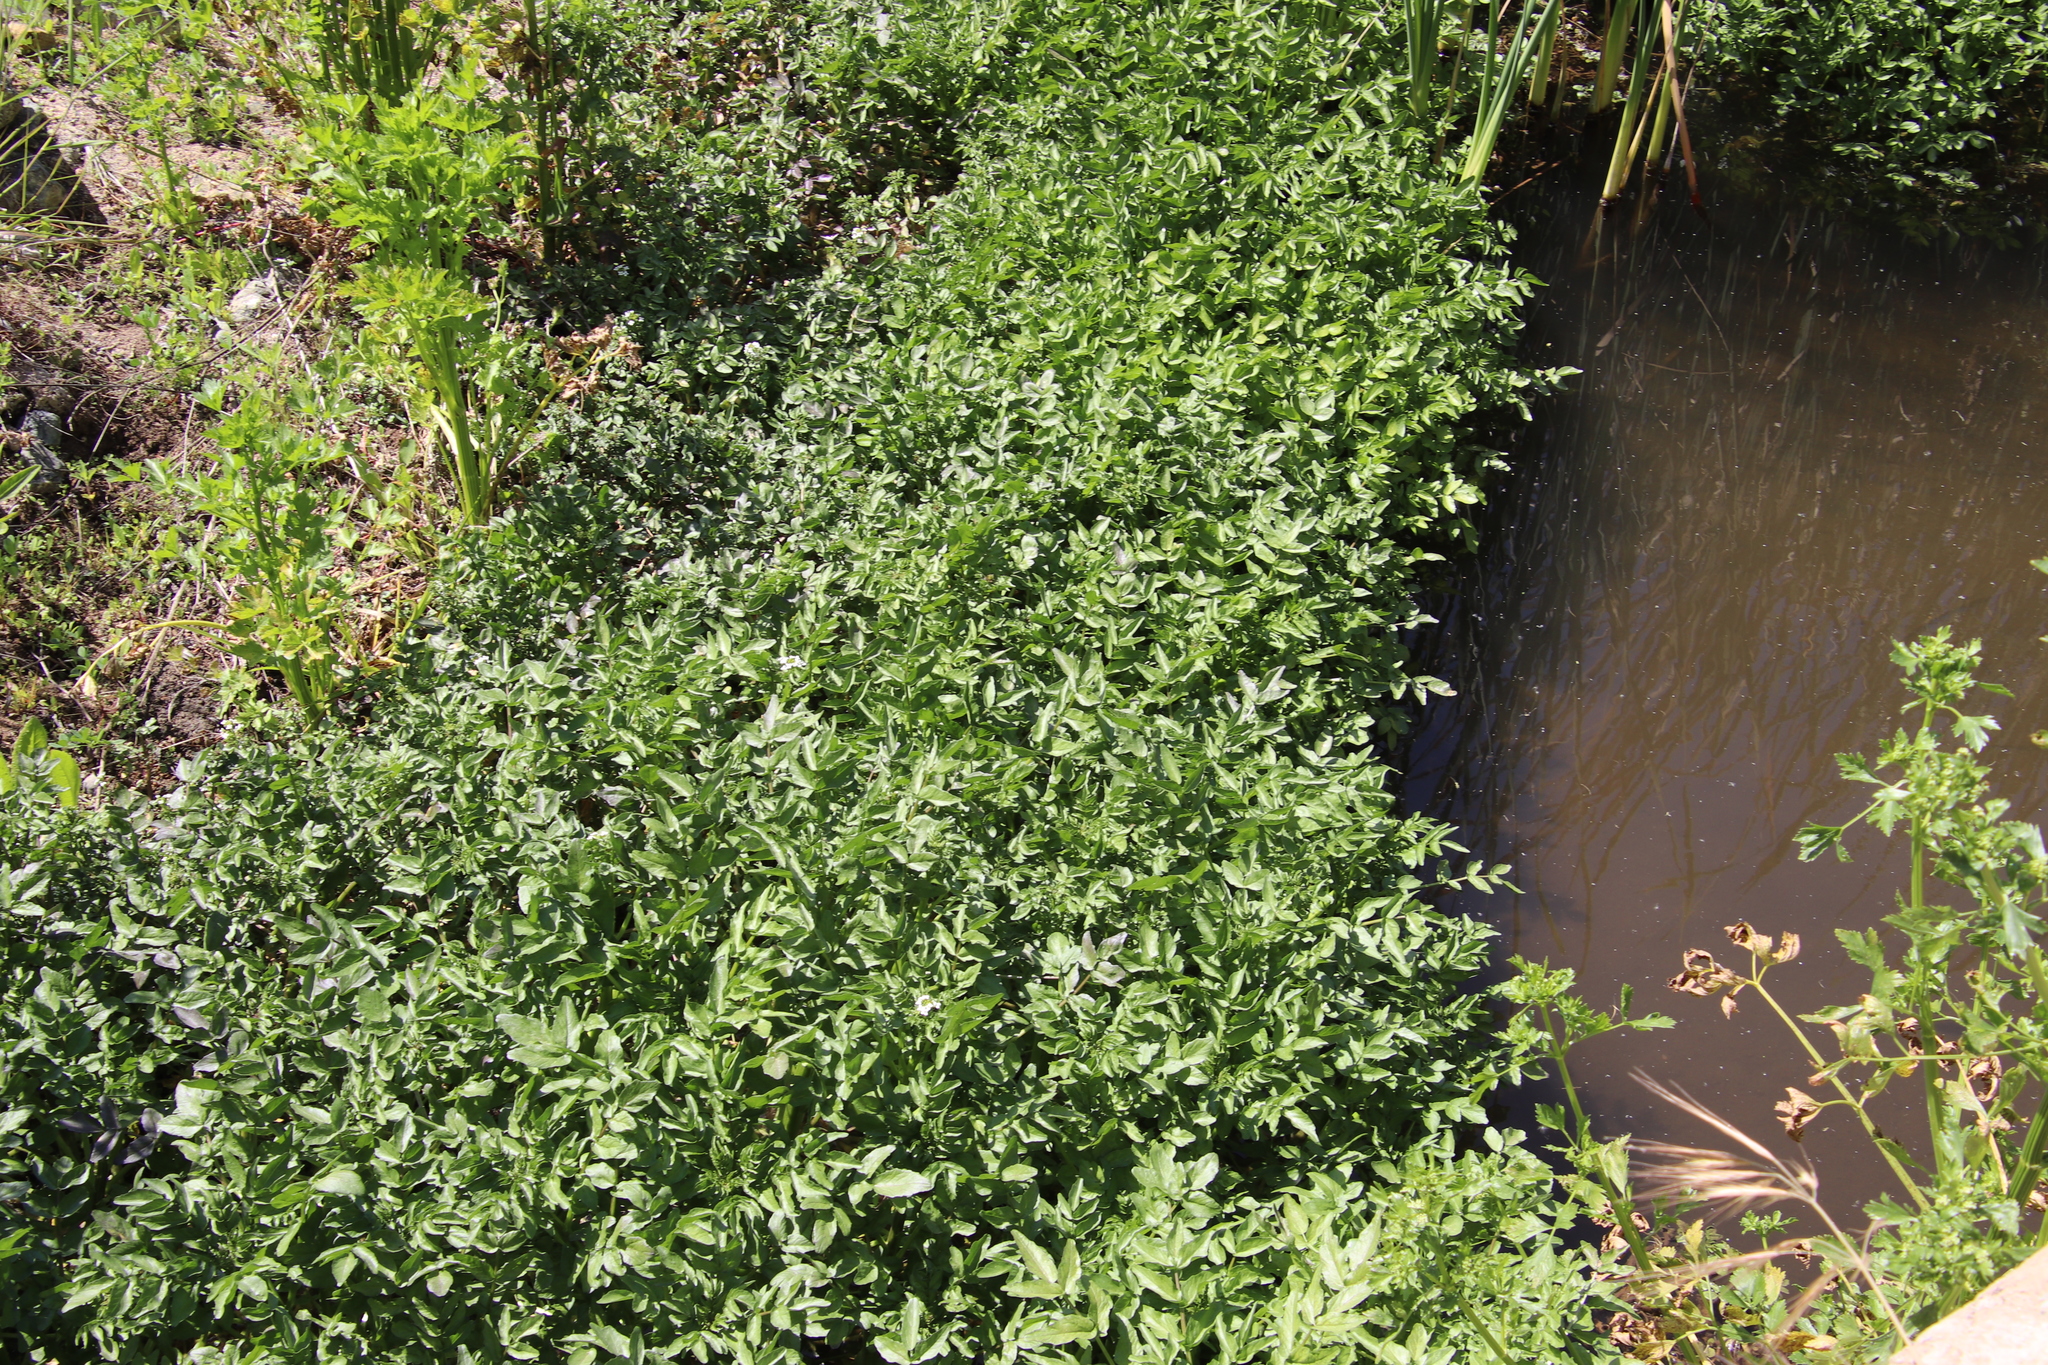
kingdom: Plantae
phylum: Tracheophyta
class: Magnoliopsida
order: Brassicales
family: Brassicaceae
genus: Nasturtium
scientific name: Nasturtium officinale
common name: Watercress
